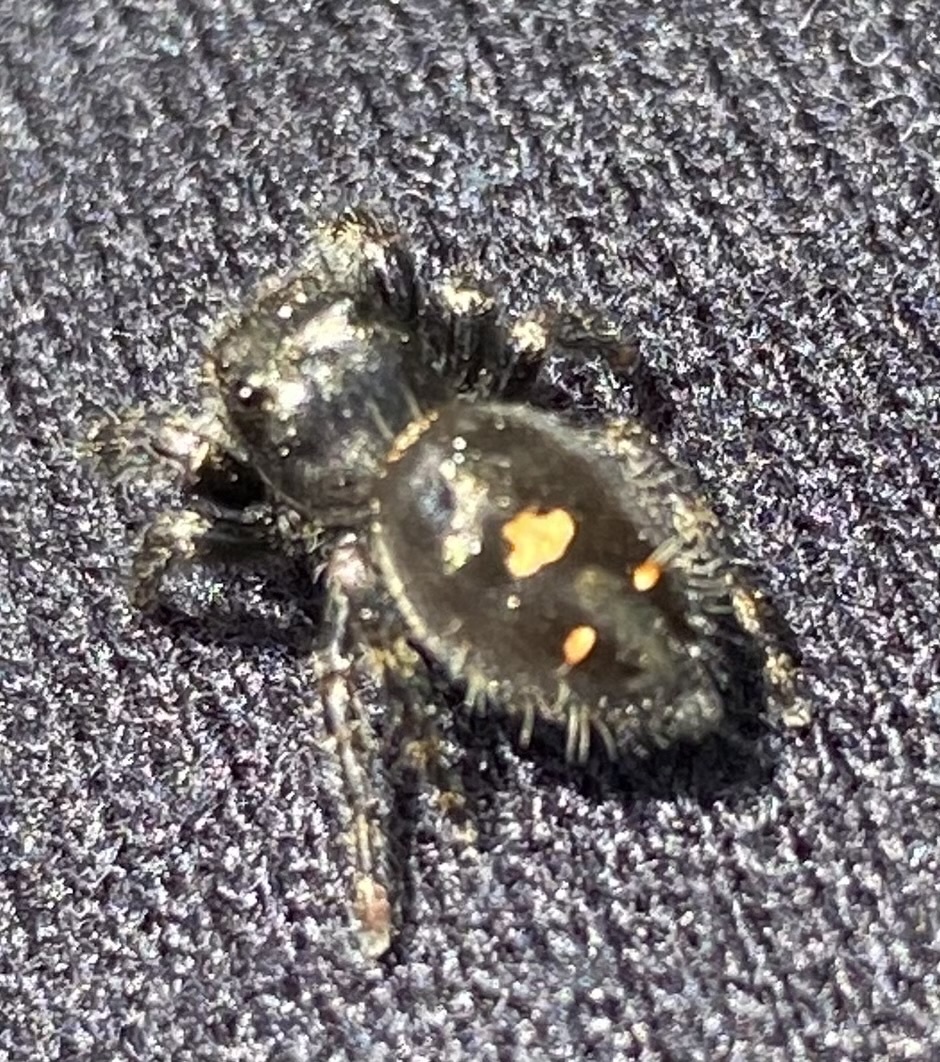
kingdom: Animalia
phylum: Arthropoda
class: Arachnida
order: Araneae
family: Salticidae
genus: Phidippus
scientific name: Phidippus audax
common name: Bold jumper
